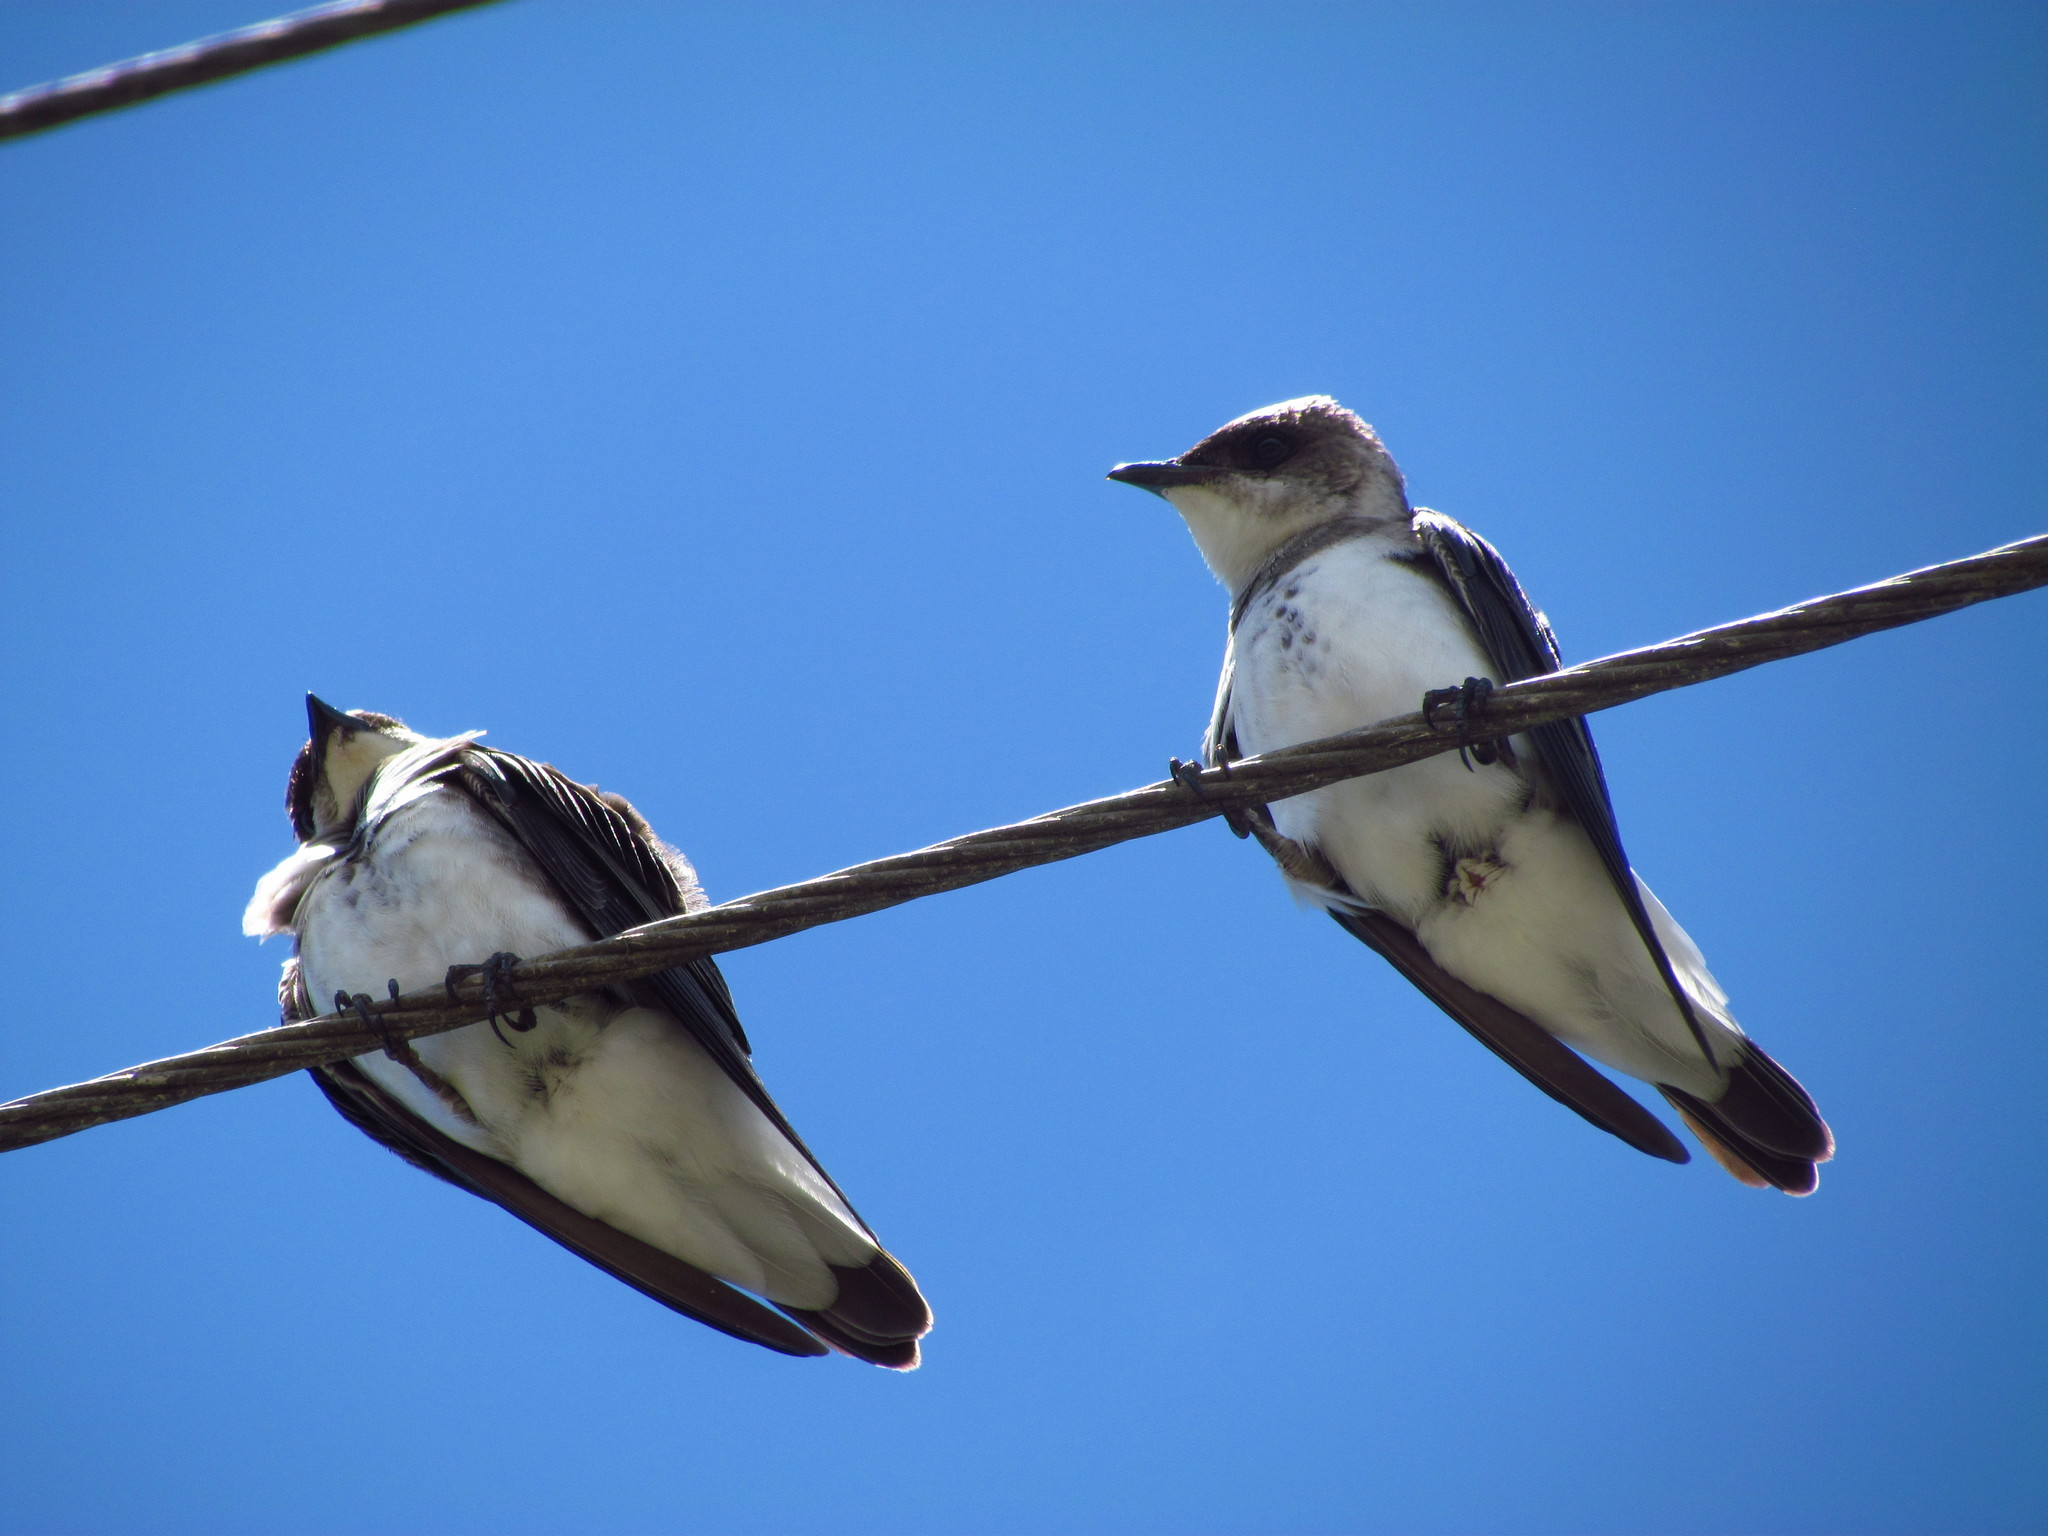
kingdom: Animalia
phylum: Chordata
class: Aves
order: Passeriformes
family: Hirundinidae
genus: Progne
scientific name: Progne tapera
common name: Brown-chested martin
